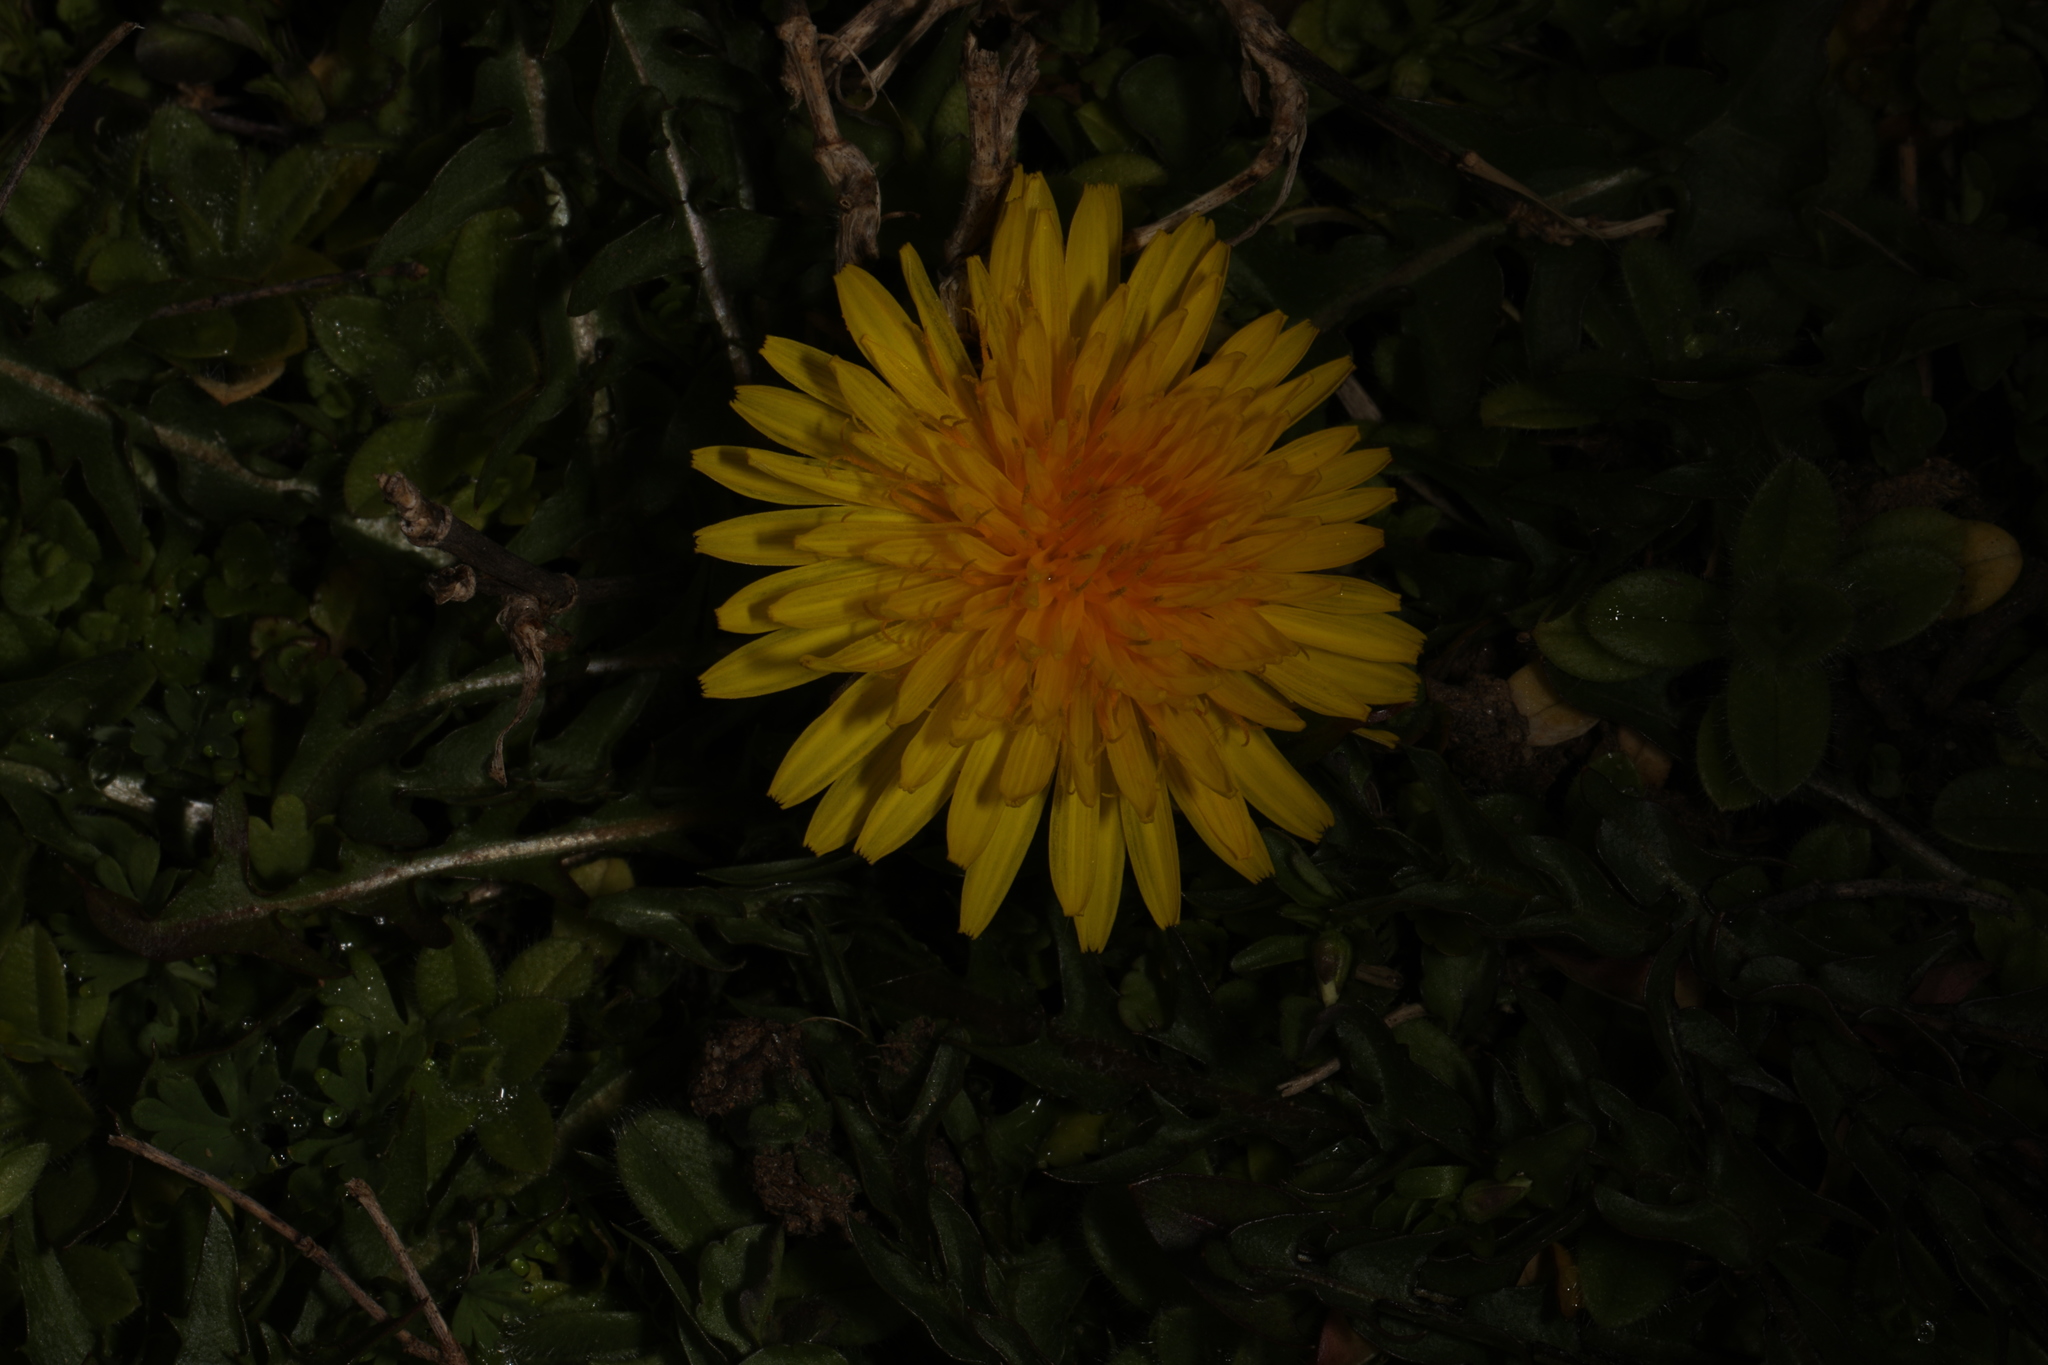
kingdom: Plantae
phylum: Tracheophyta
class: Magnoliopsida
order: Asterales
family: Asteraceae
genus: Taraxacum
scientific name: Taraxacum officinale
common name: Common dandelion
